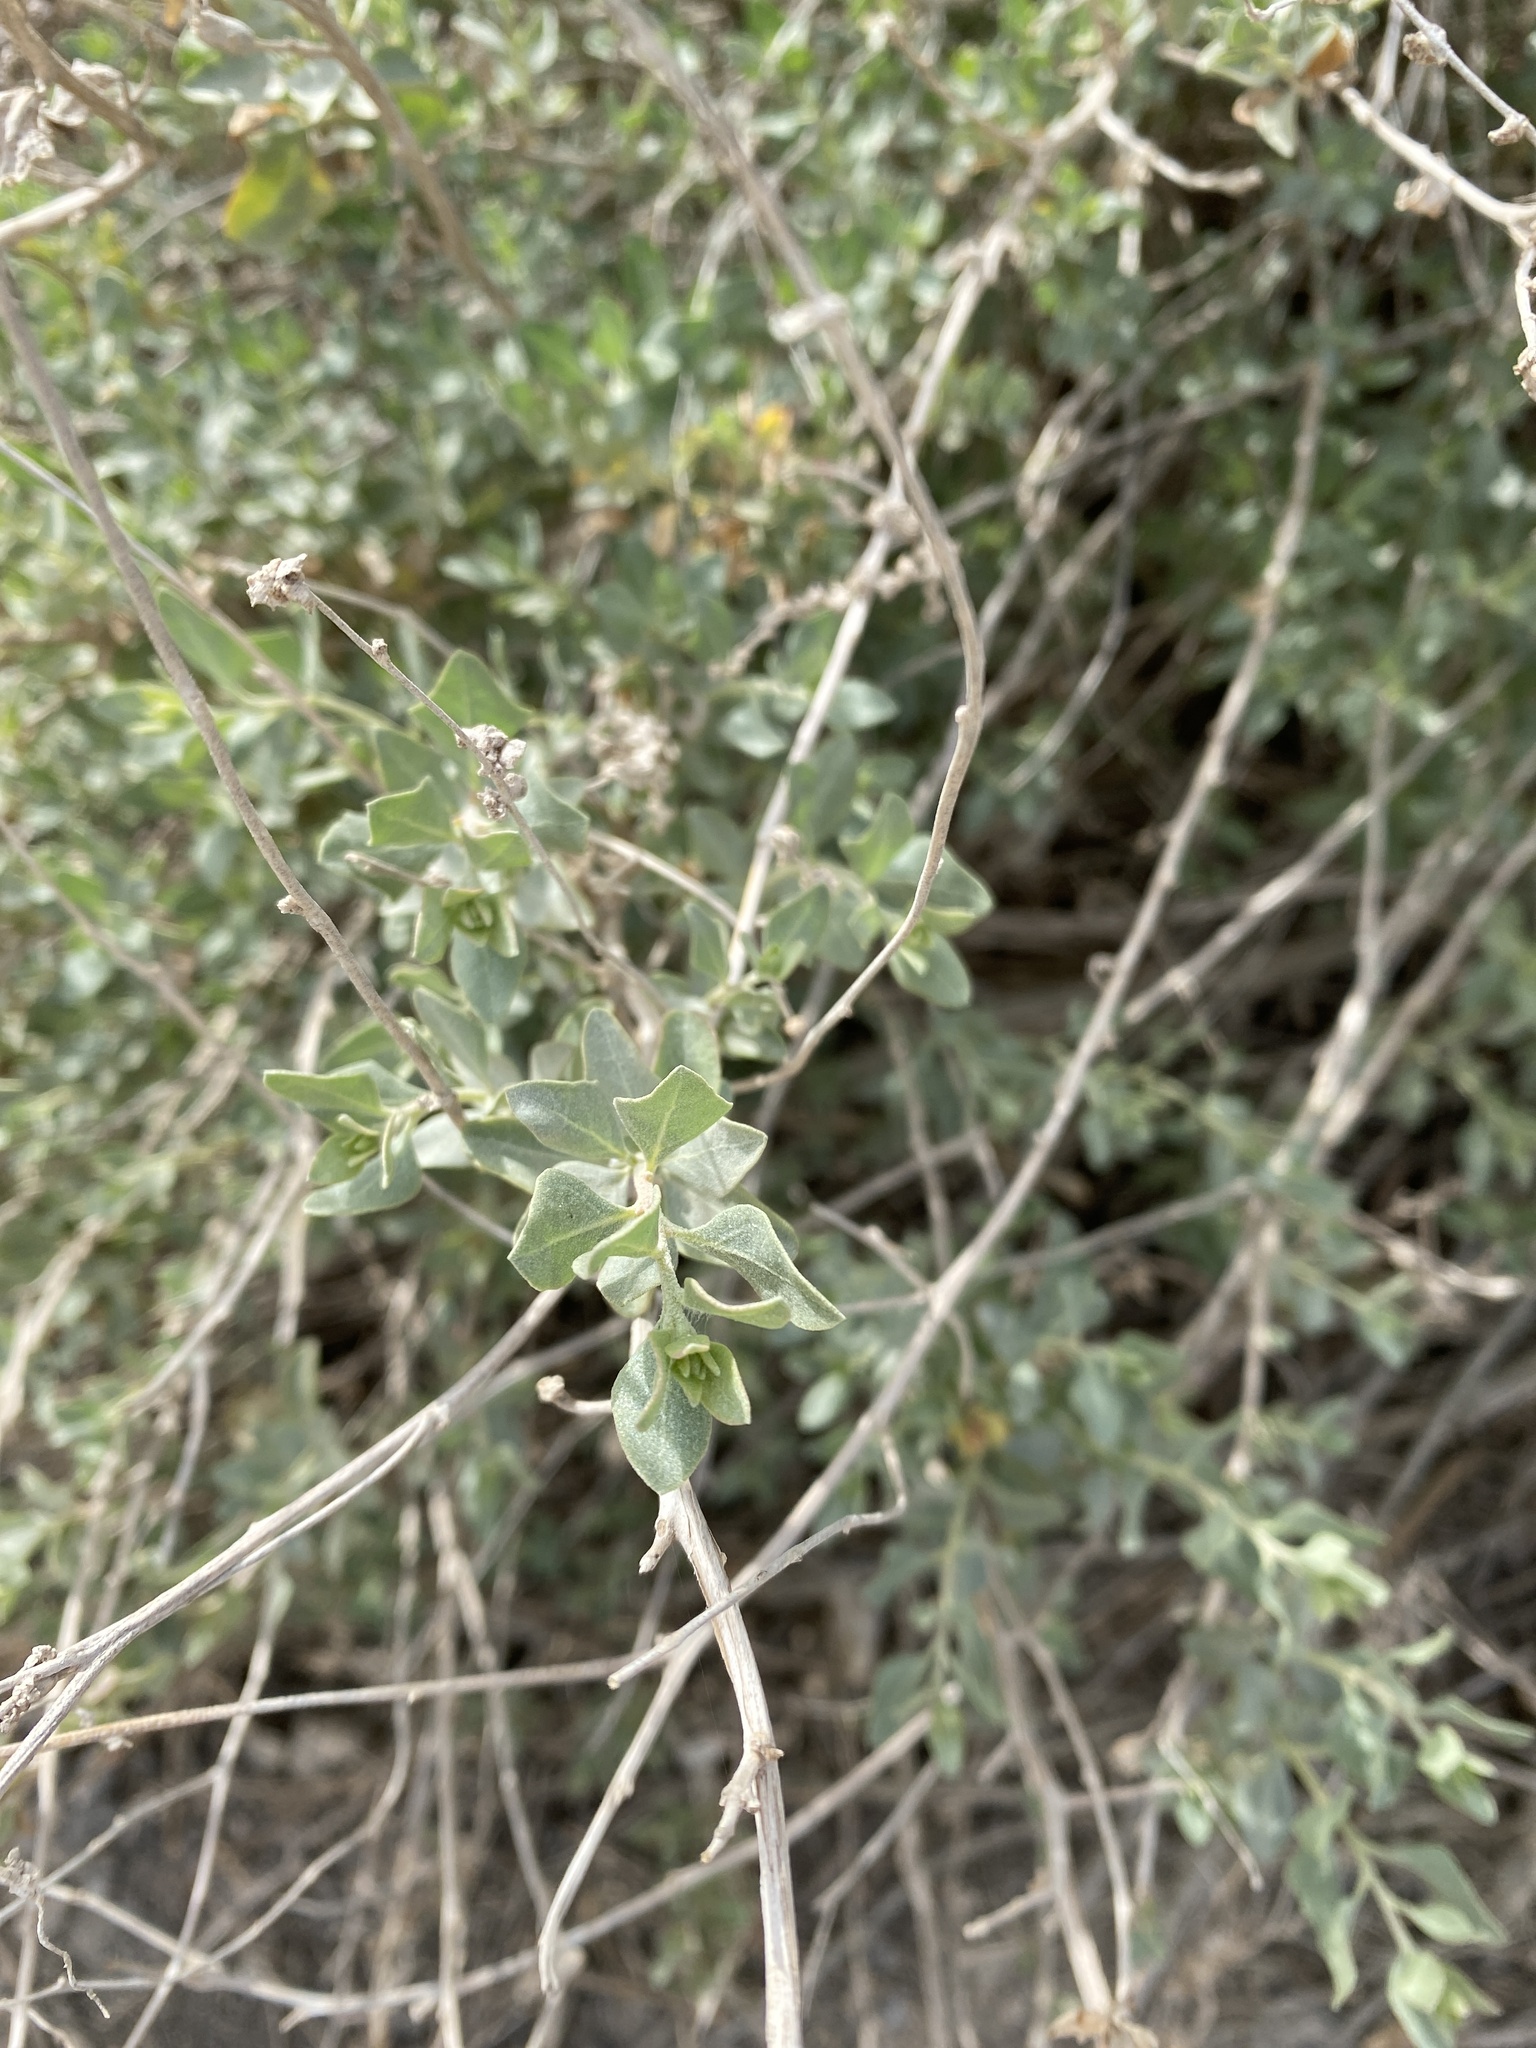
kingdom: Plantae
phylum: Tracheophyta
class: Magnoliopsida
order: Caryophyllales
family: Amaranthaceae
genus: Atriplex
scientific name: Atriplex halimus
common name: Shrubby orache
